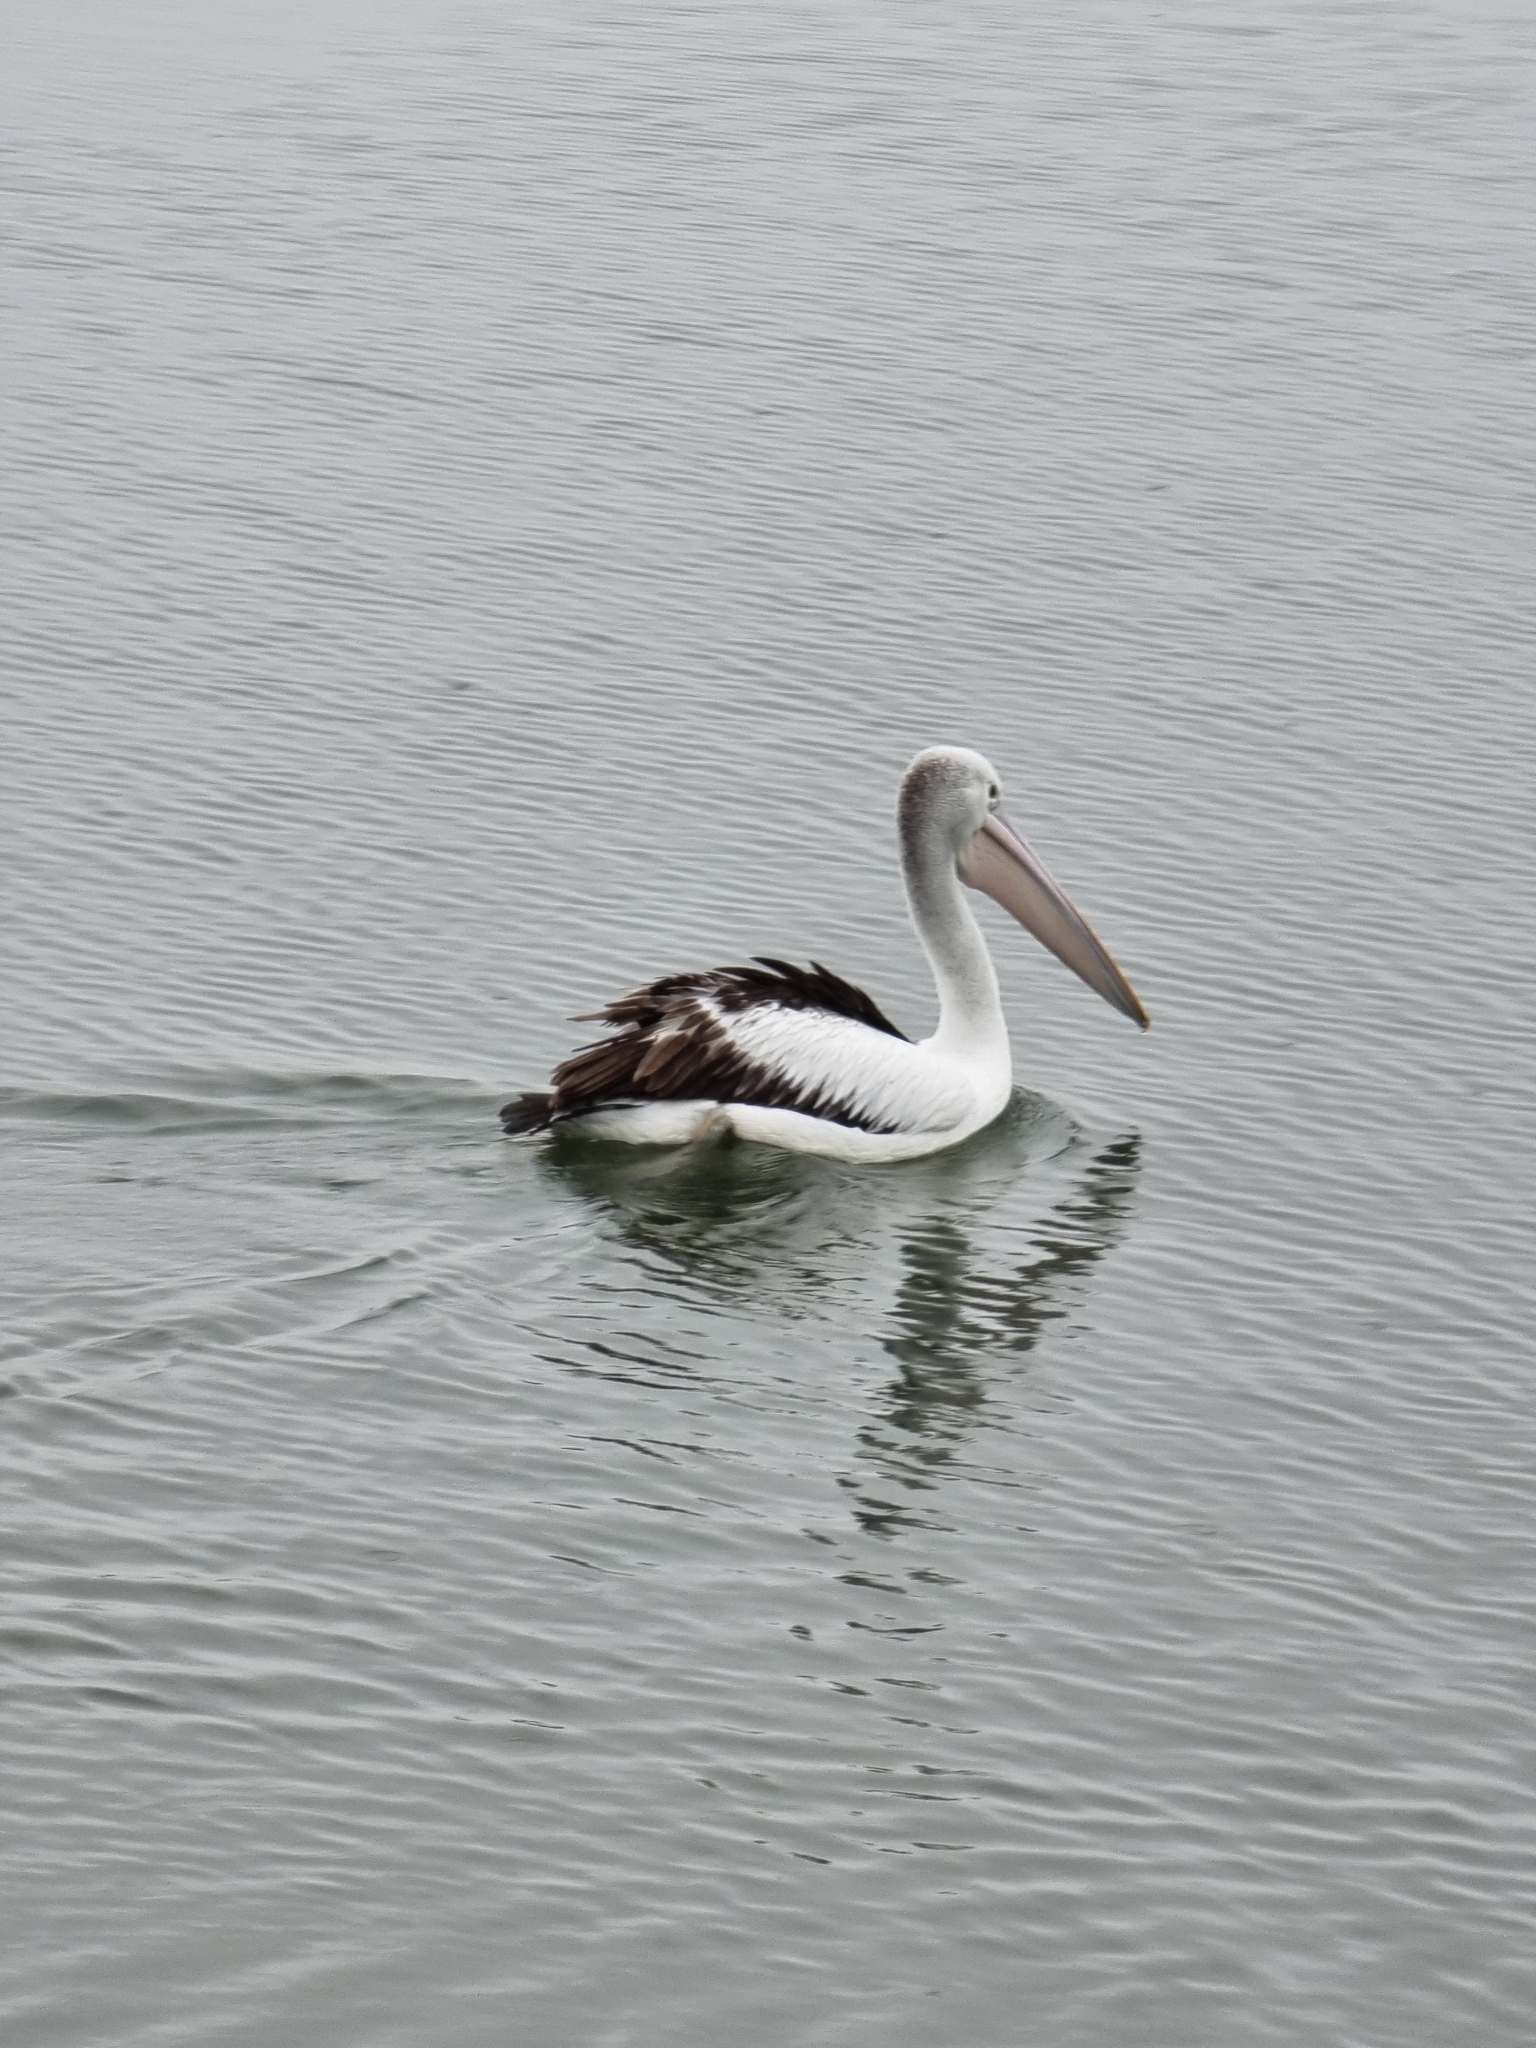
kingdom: Animalia
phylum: Chordata
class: Aves
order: Pelecaniformes
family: Pelecanidae
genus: Pelecanus
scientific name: Pelecanus conspicillatus
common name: Australian pelican
